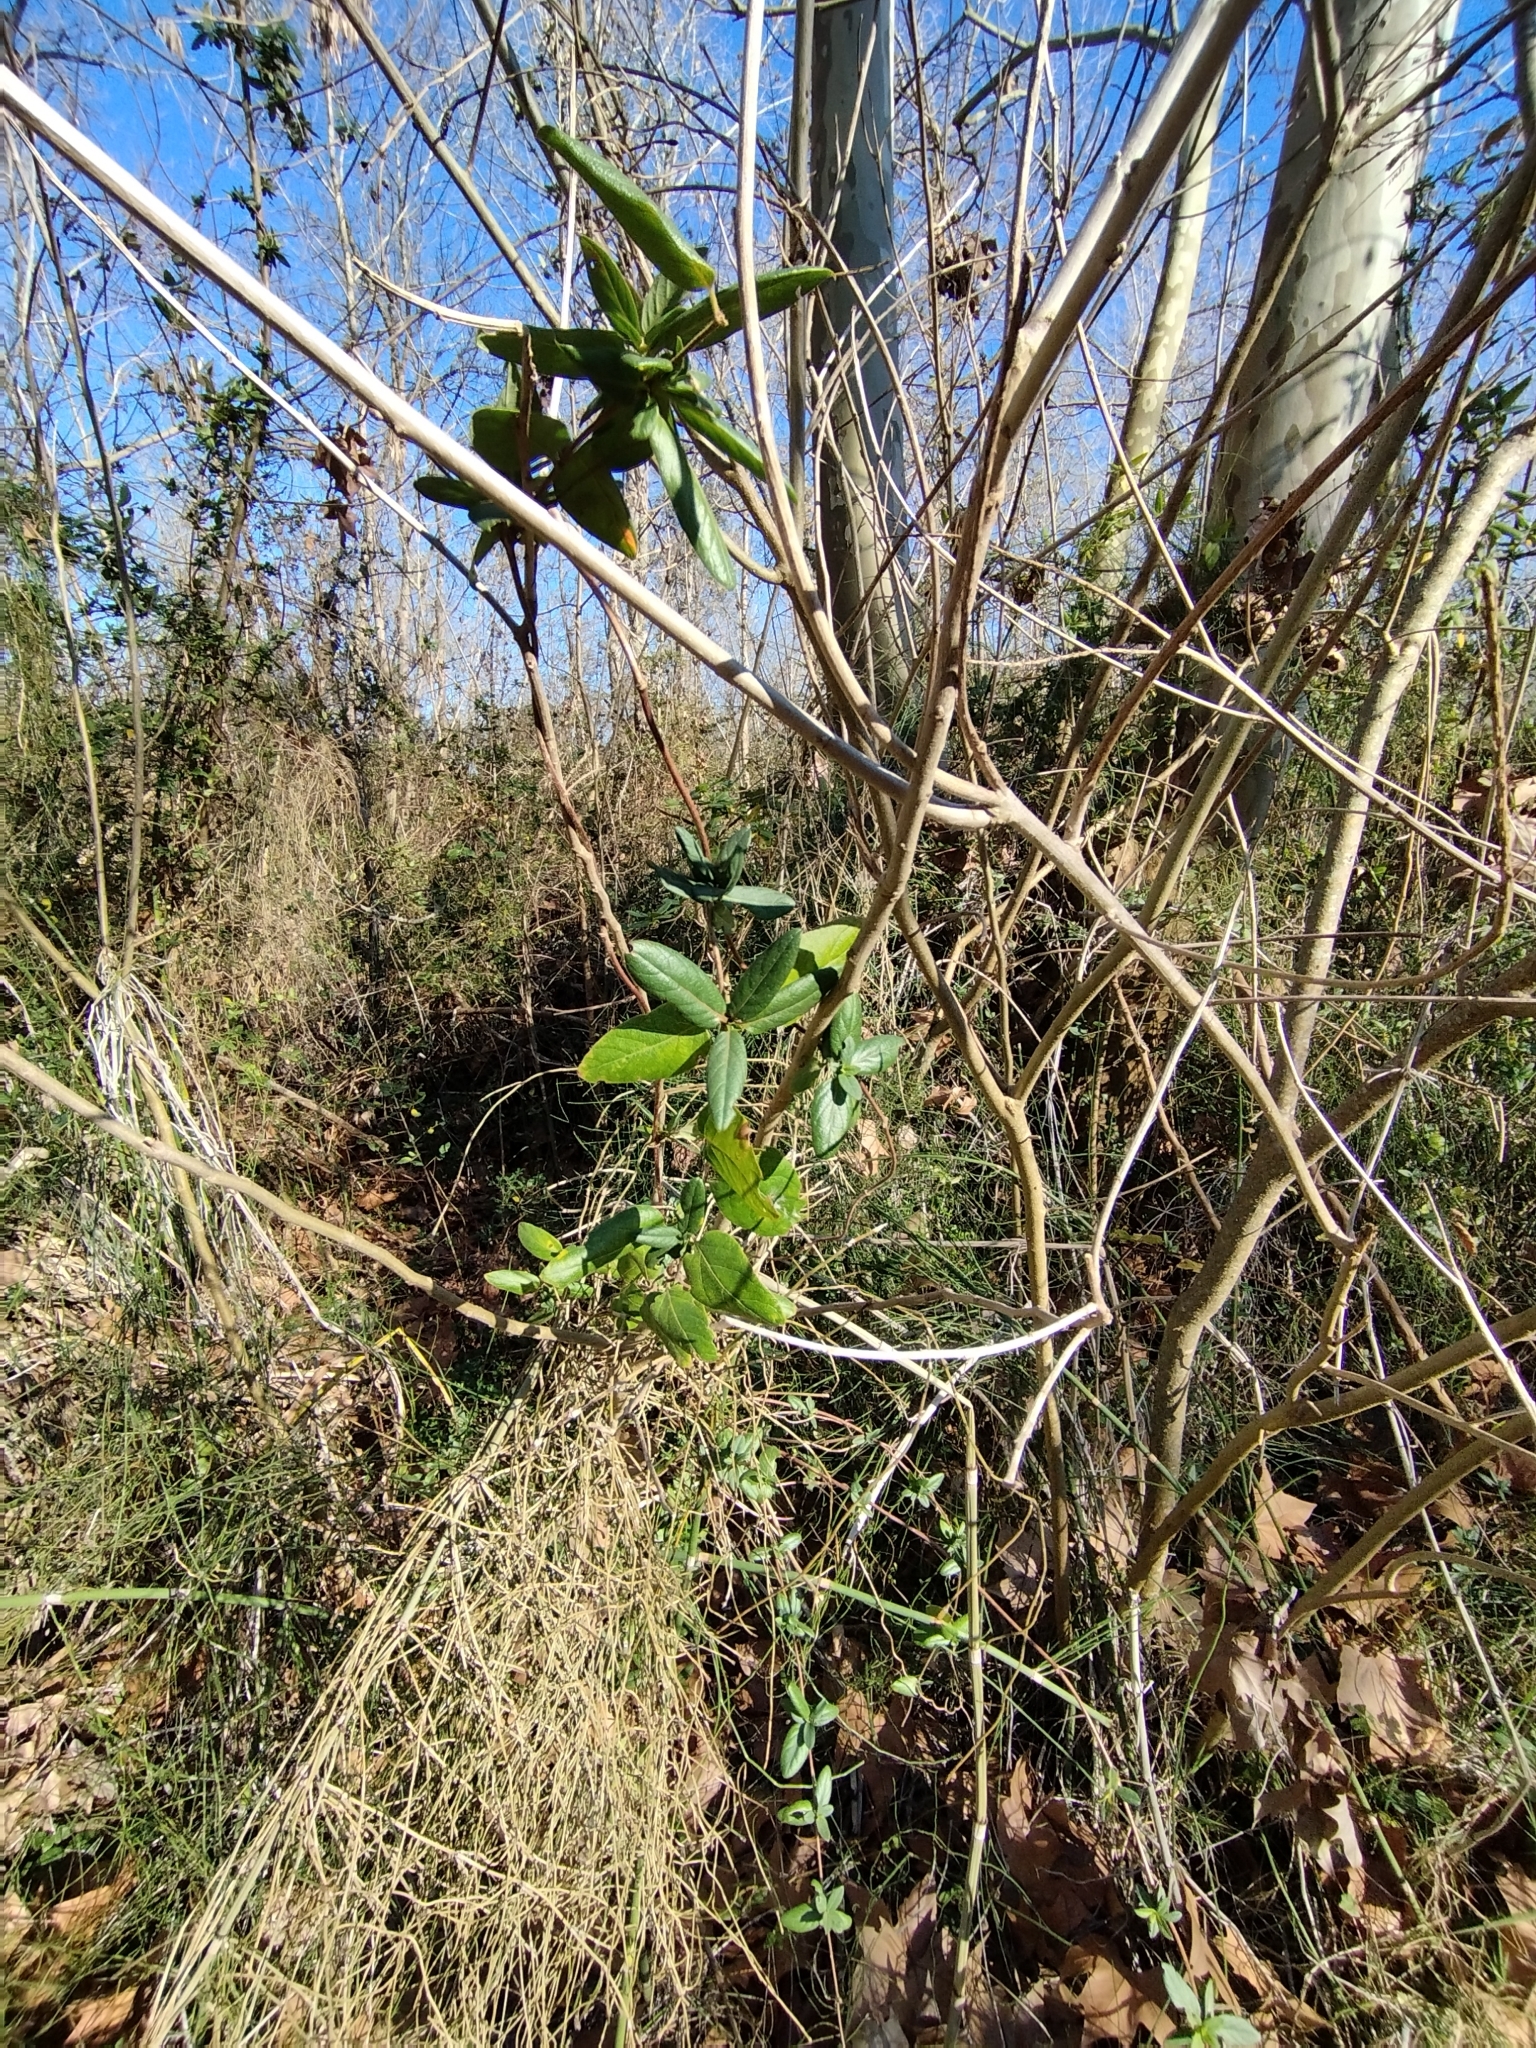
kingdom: Plantae
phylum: Tracheophyta
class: Magnoliopsida
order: Dipsacales
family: Caprifoliaceae
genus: Lonicera
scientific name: Lonicera japonica
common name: Japanese honeysuckle
